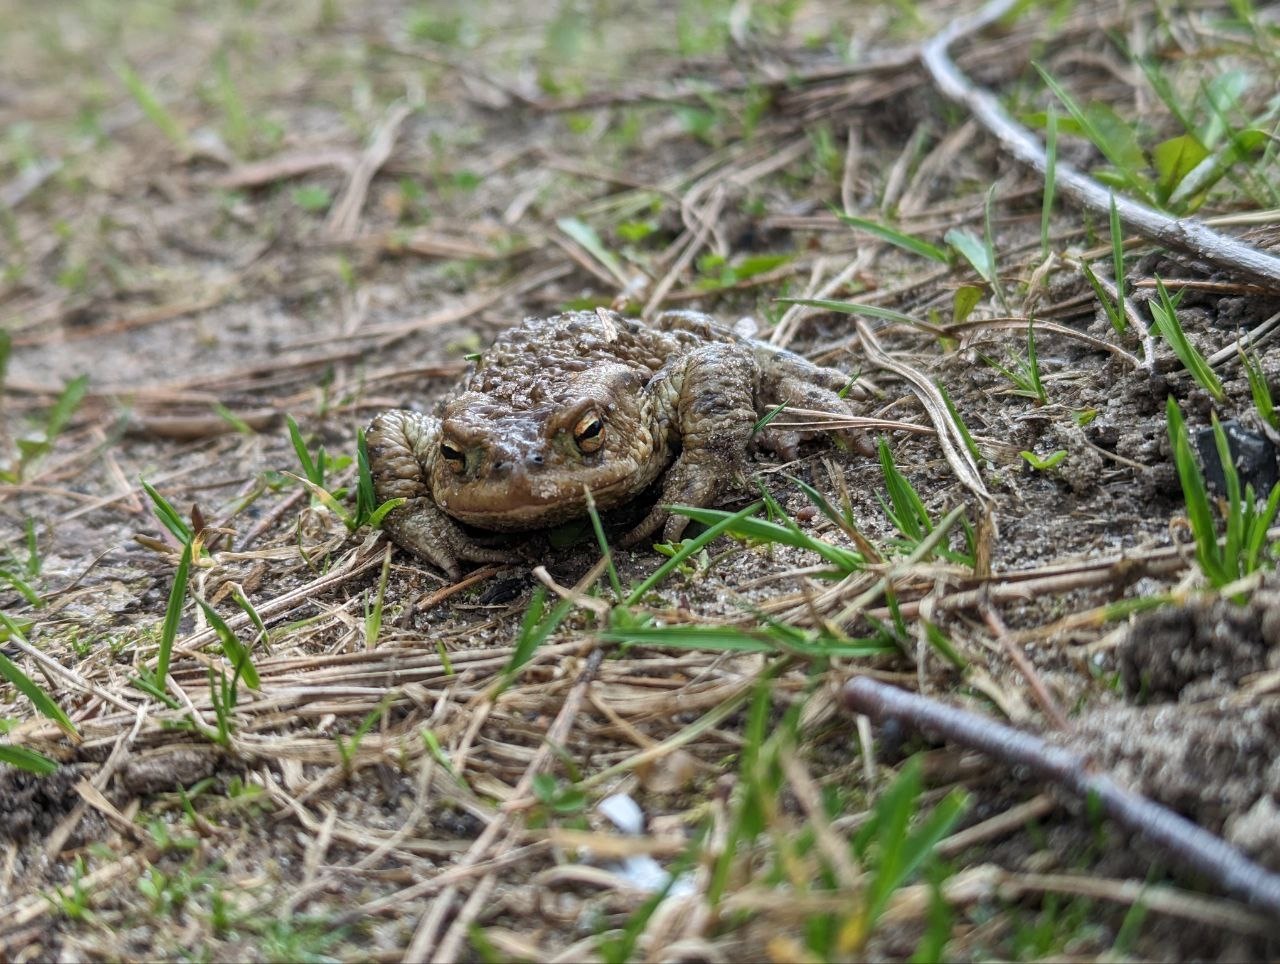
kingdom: Animalia
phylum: Chordata
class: Amphibia
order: Anura
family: Bufonidae
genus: Bufo
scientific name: Bufo bufo
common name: Common toad
